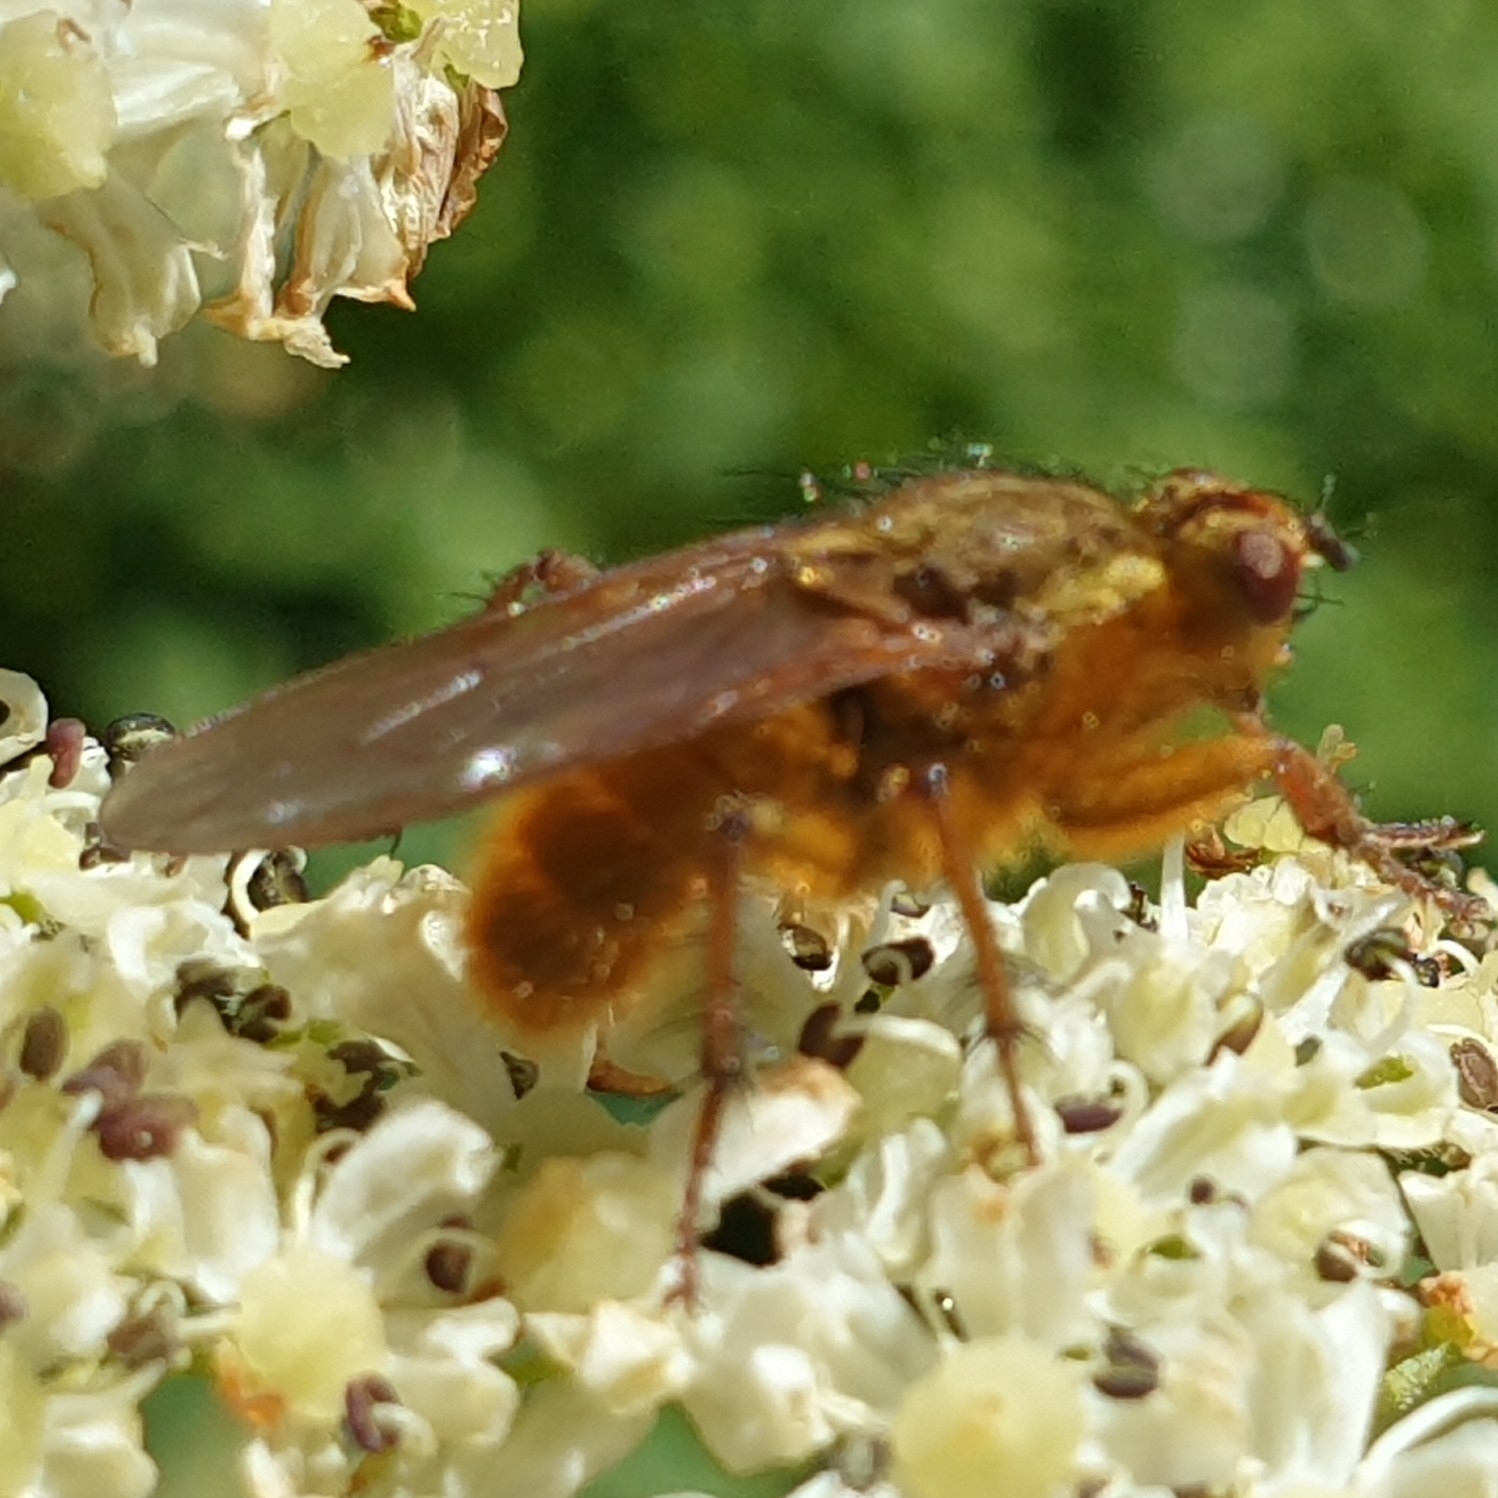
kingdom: Animalia
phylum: Arthropoda
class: Insecta
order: Diptera
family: Scathophagidae
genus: Scathophaga
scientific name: Scathophaga stercoraria
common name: Yellow dung fly
